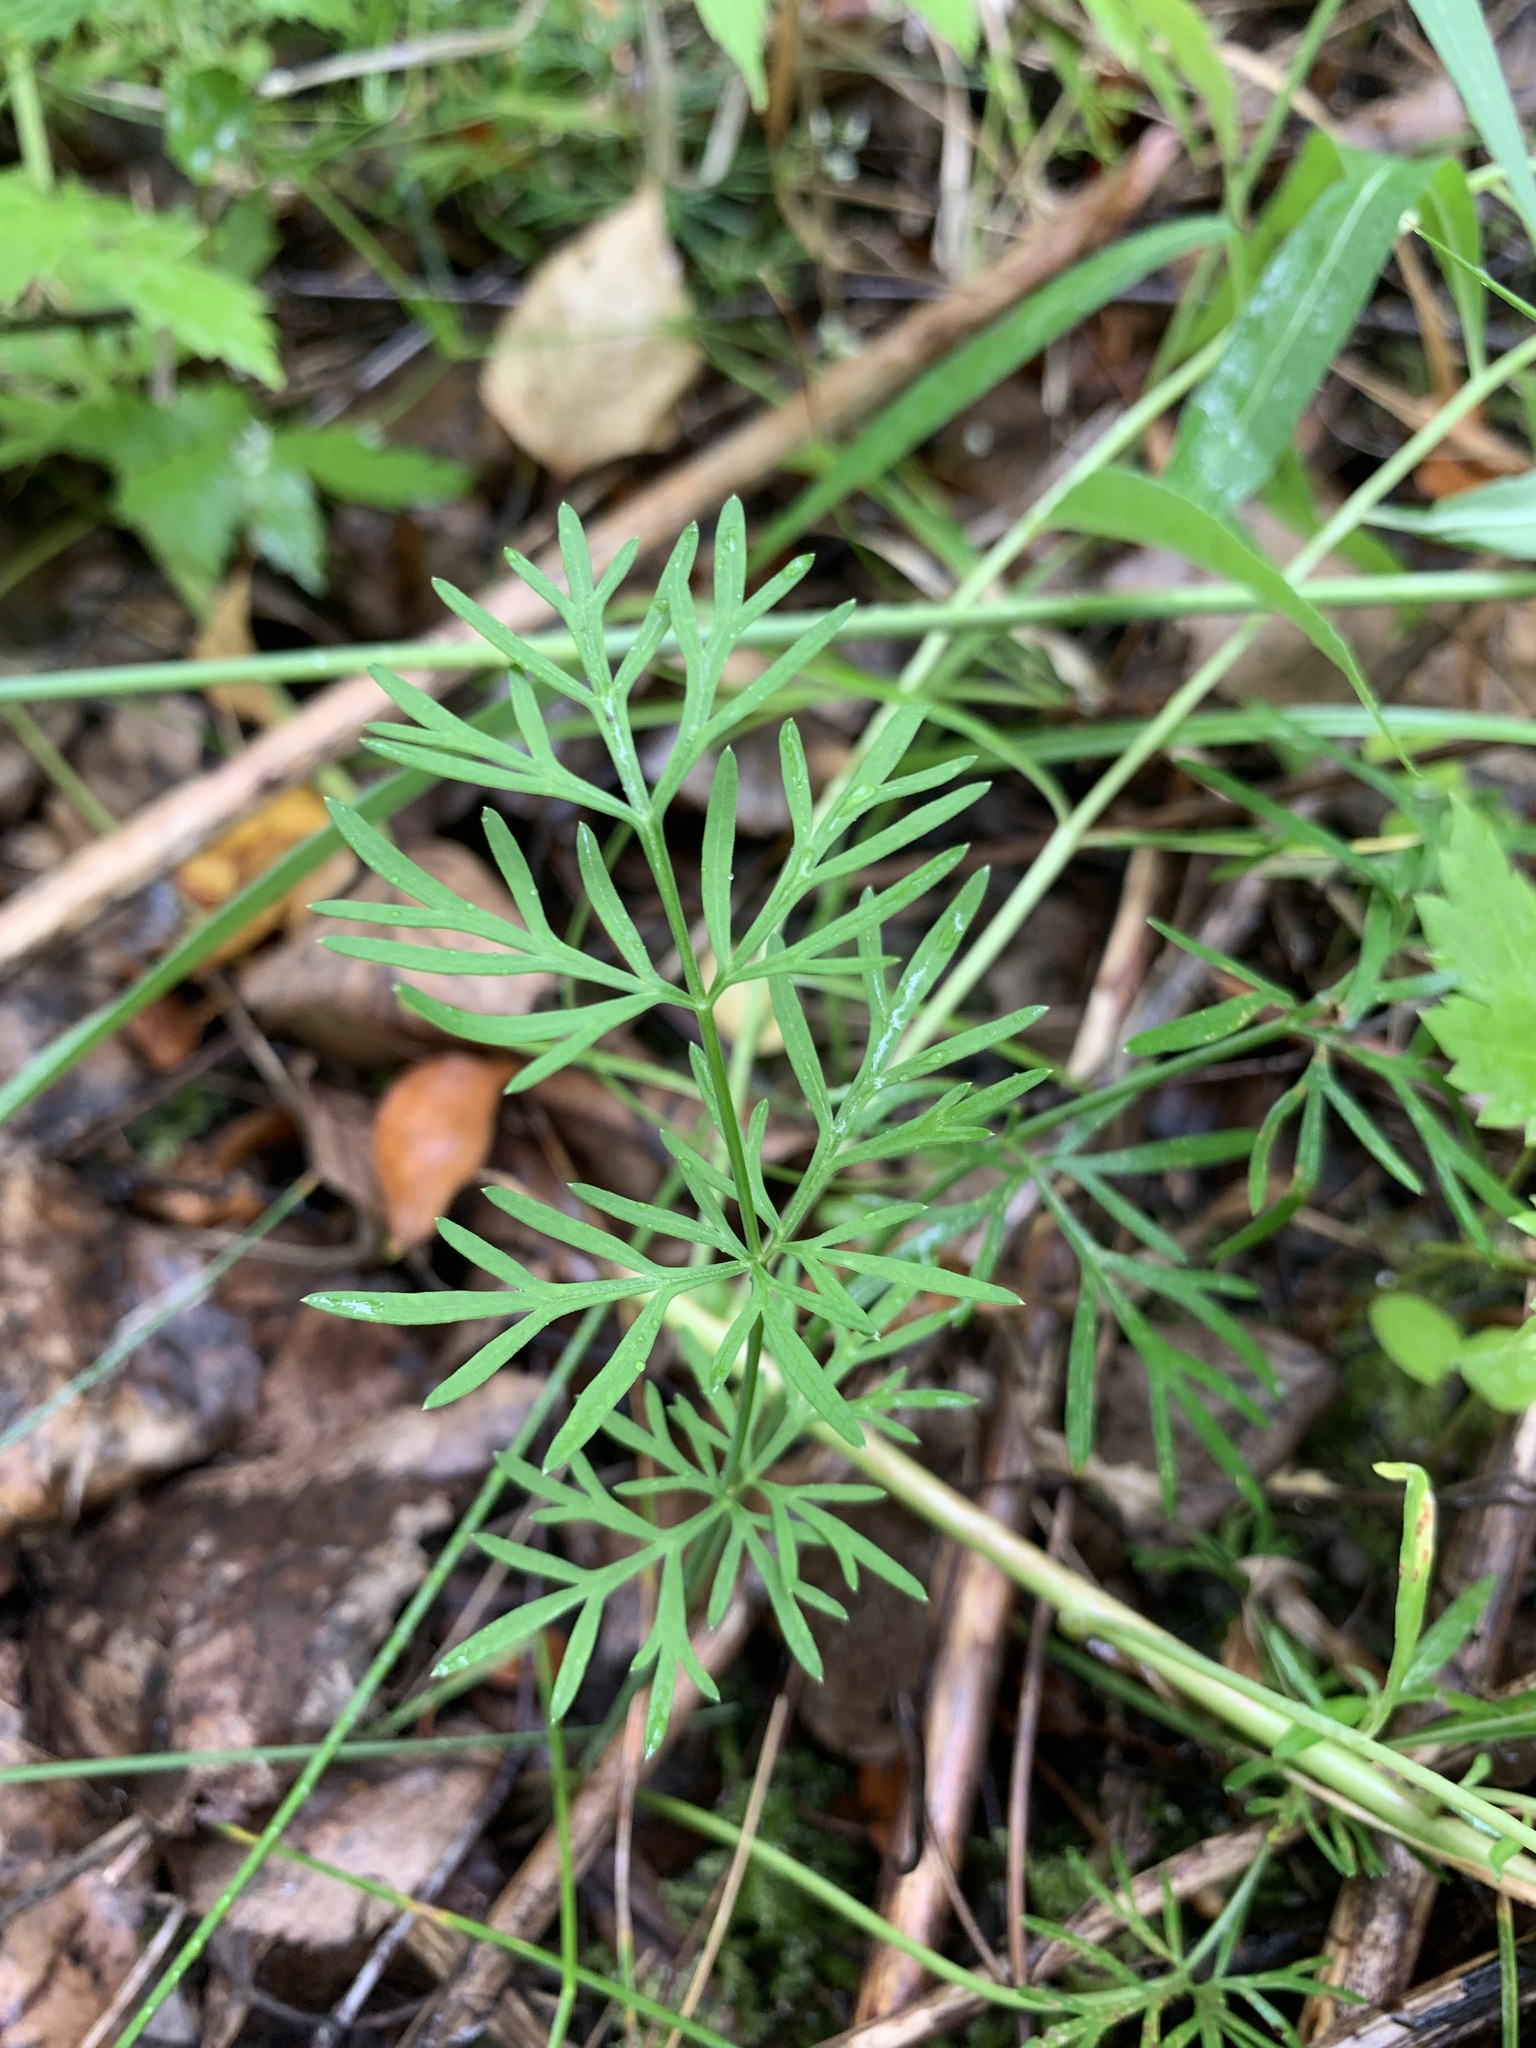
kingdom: Plantae
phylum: Tracheophyta
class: Magnoliopsida
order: Apiales
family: Apiaceae
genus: Kadenia
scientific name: Kadenia dubia
